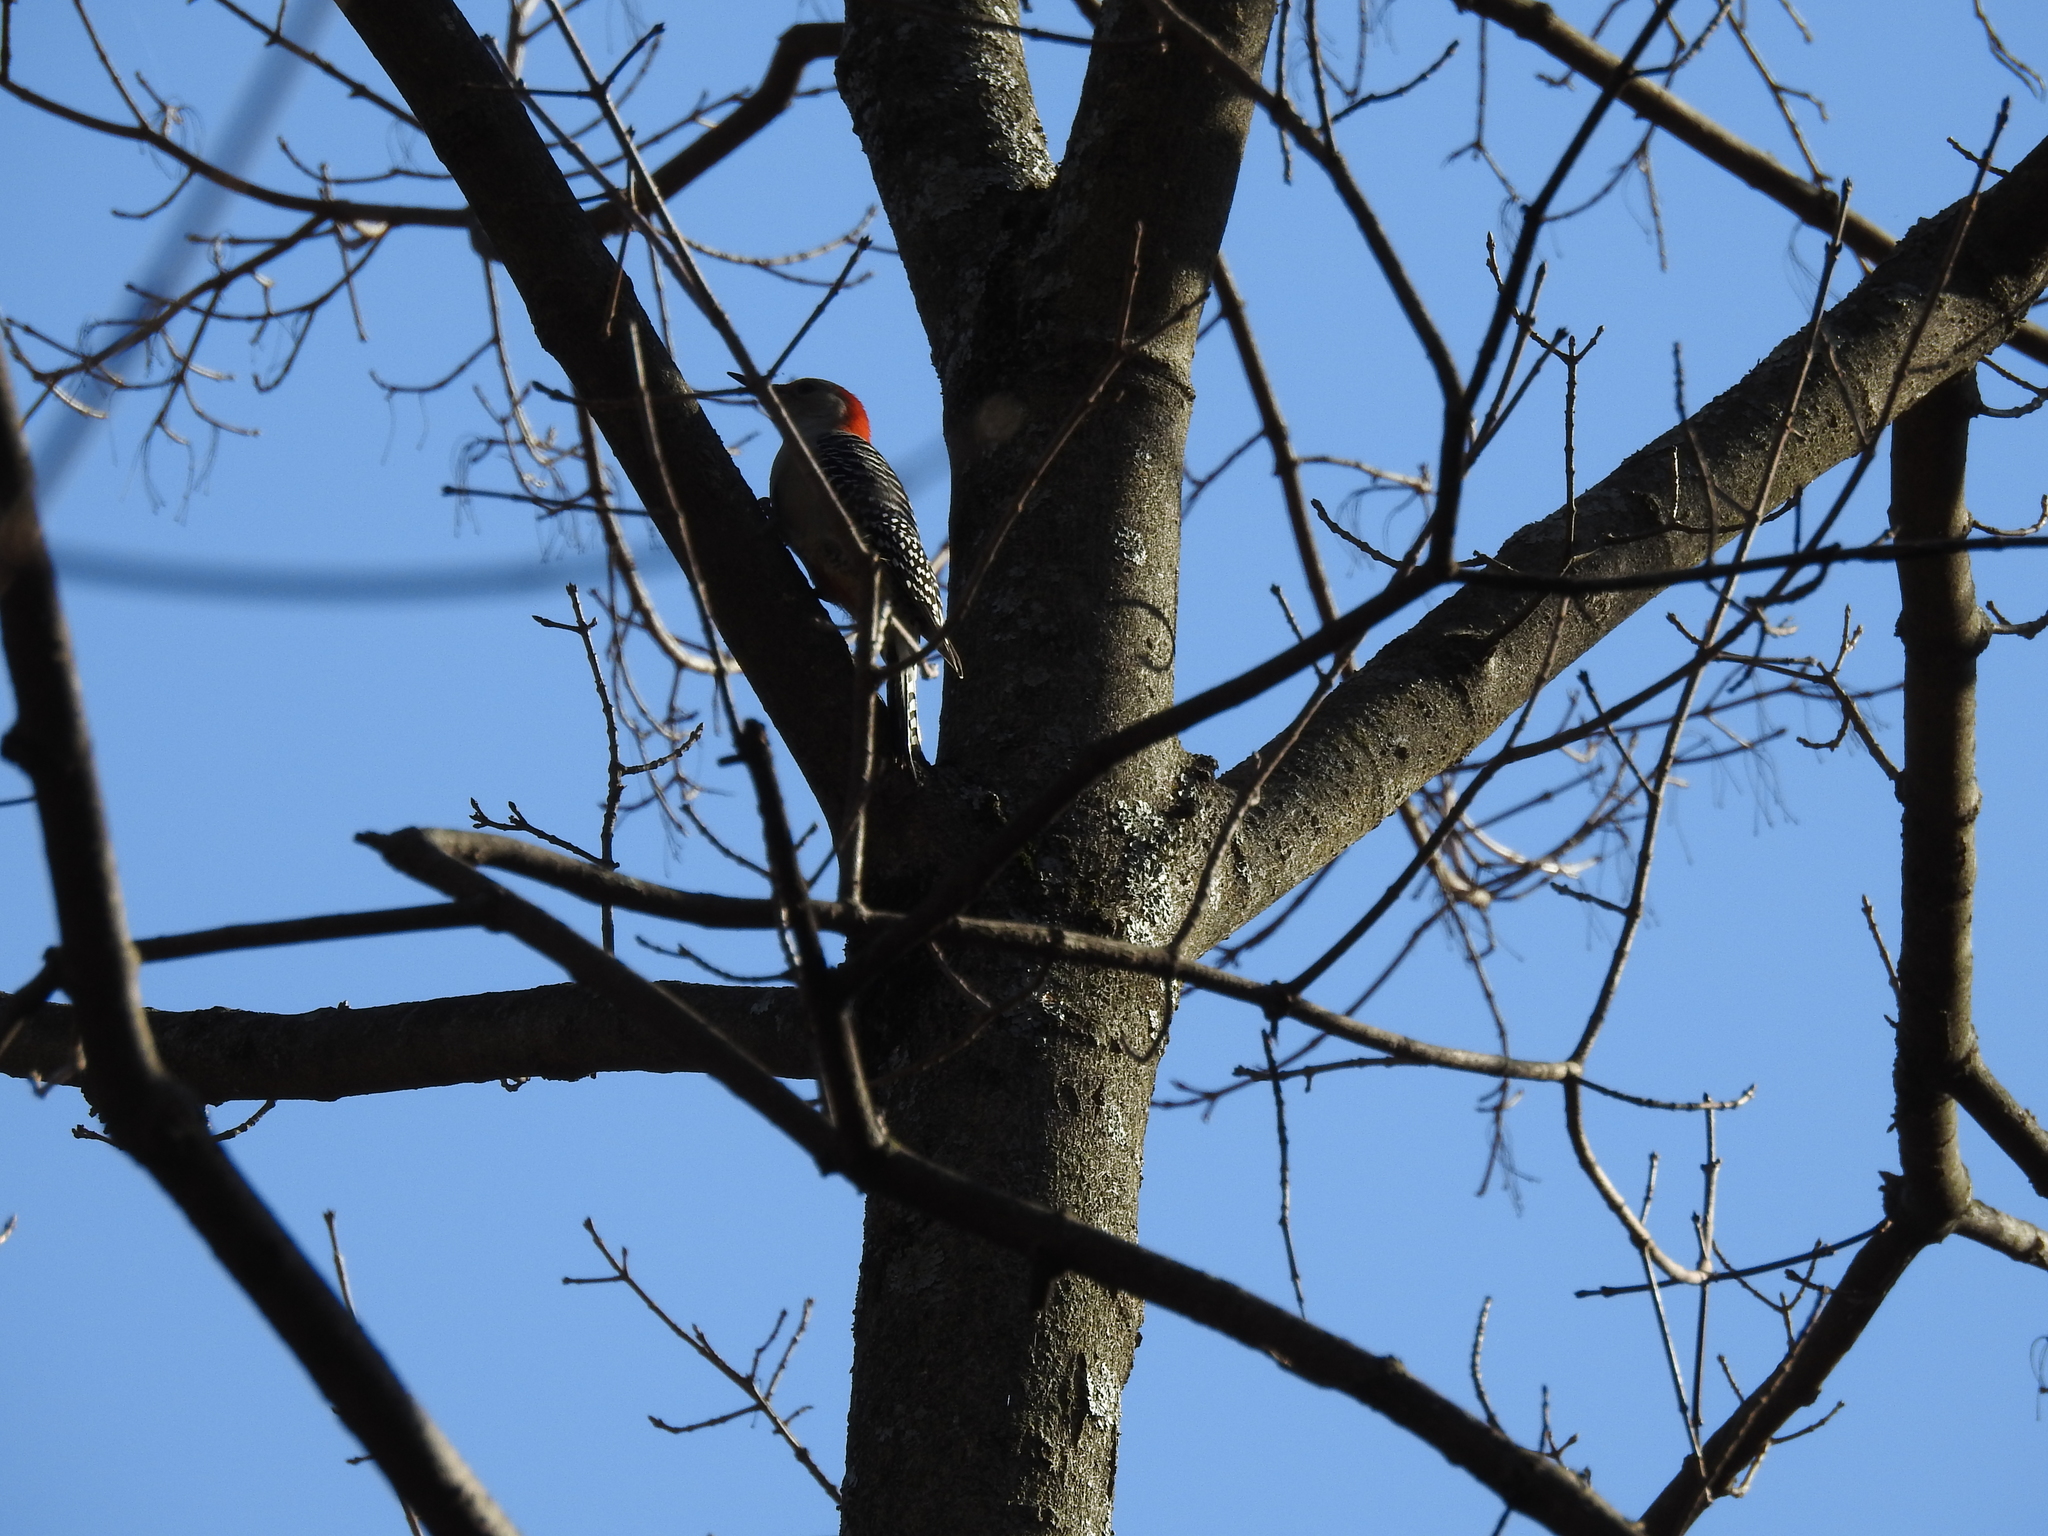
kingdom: Animalia
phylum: Chordata
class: Aves
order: Piciformes
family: Picidae
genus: Melanerpes
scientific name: Melanerpes carolinus
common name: Red-bellied woodpecker
